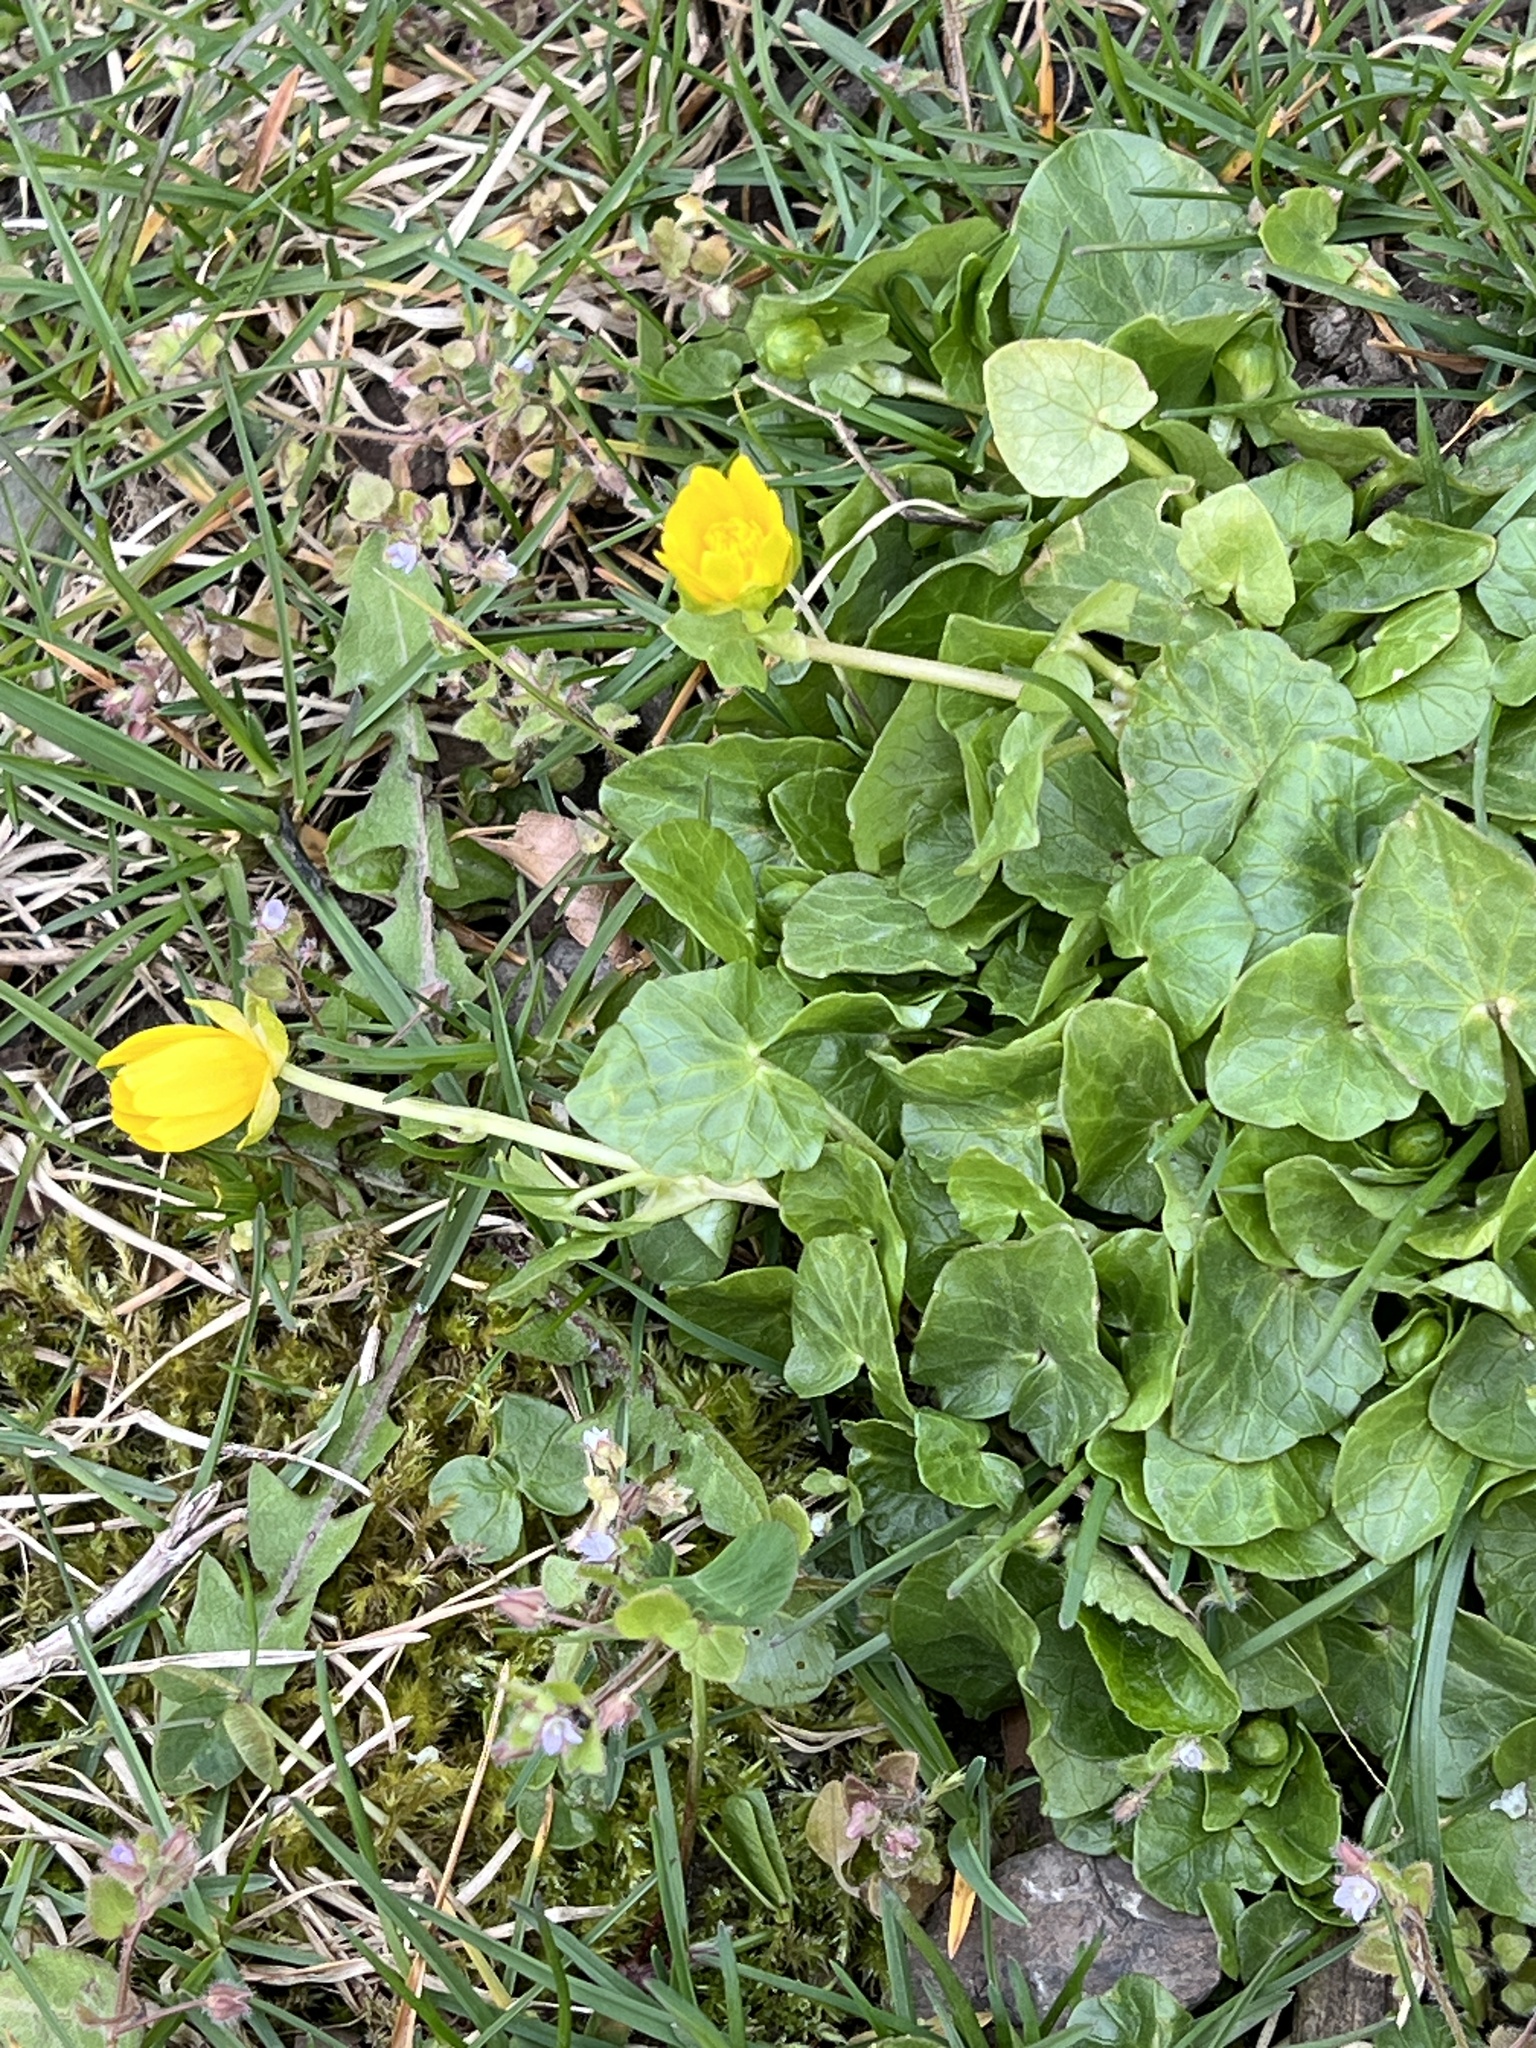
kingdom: Plantae
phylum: Tracheophyta
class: Magnoliopsida
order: Ranunculales
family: Ranunculaceae
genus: Ficaria
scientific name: Ficaria verna
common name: Lesser celandine
